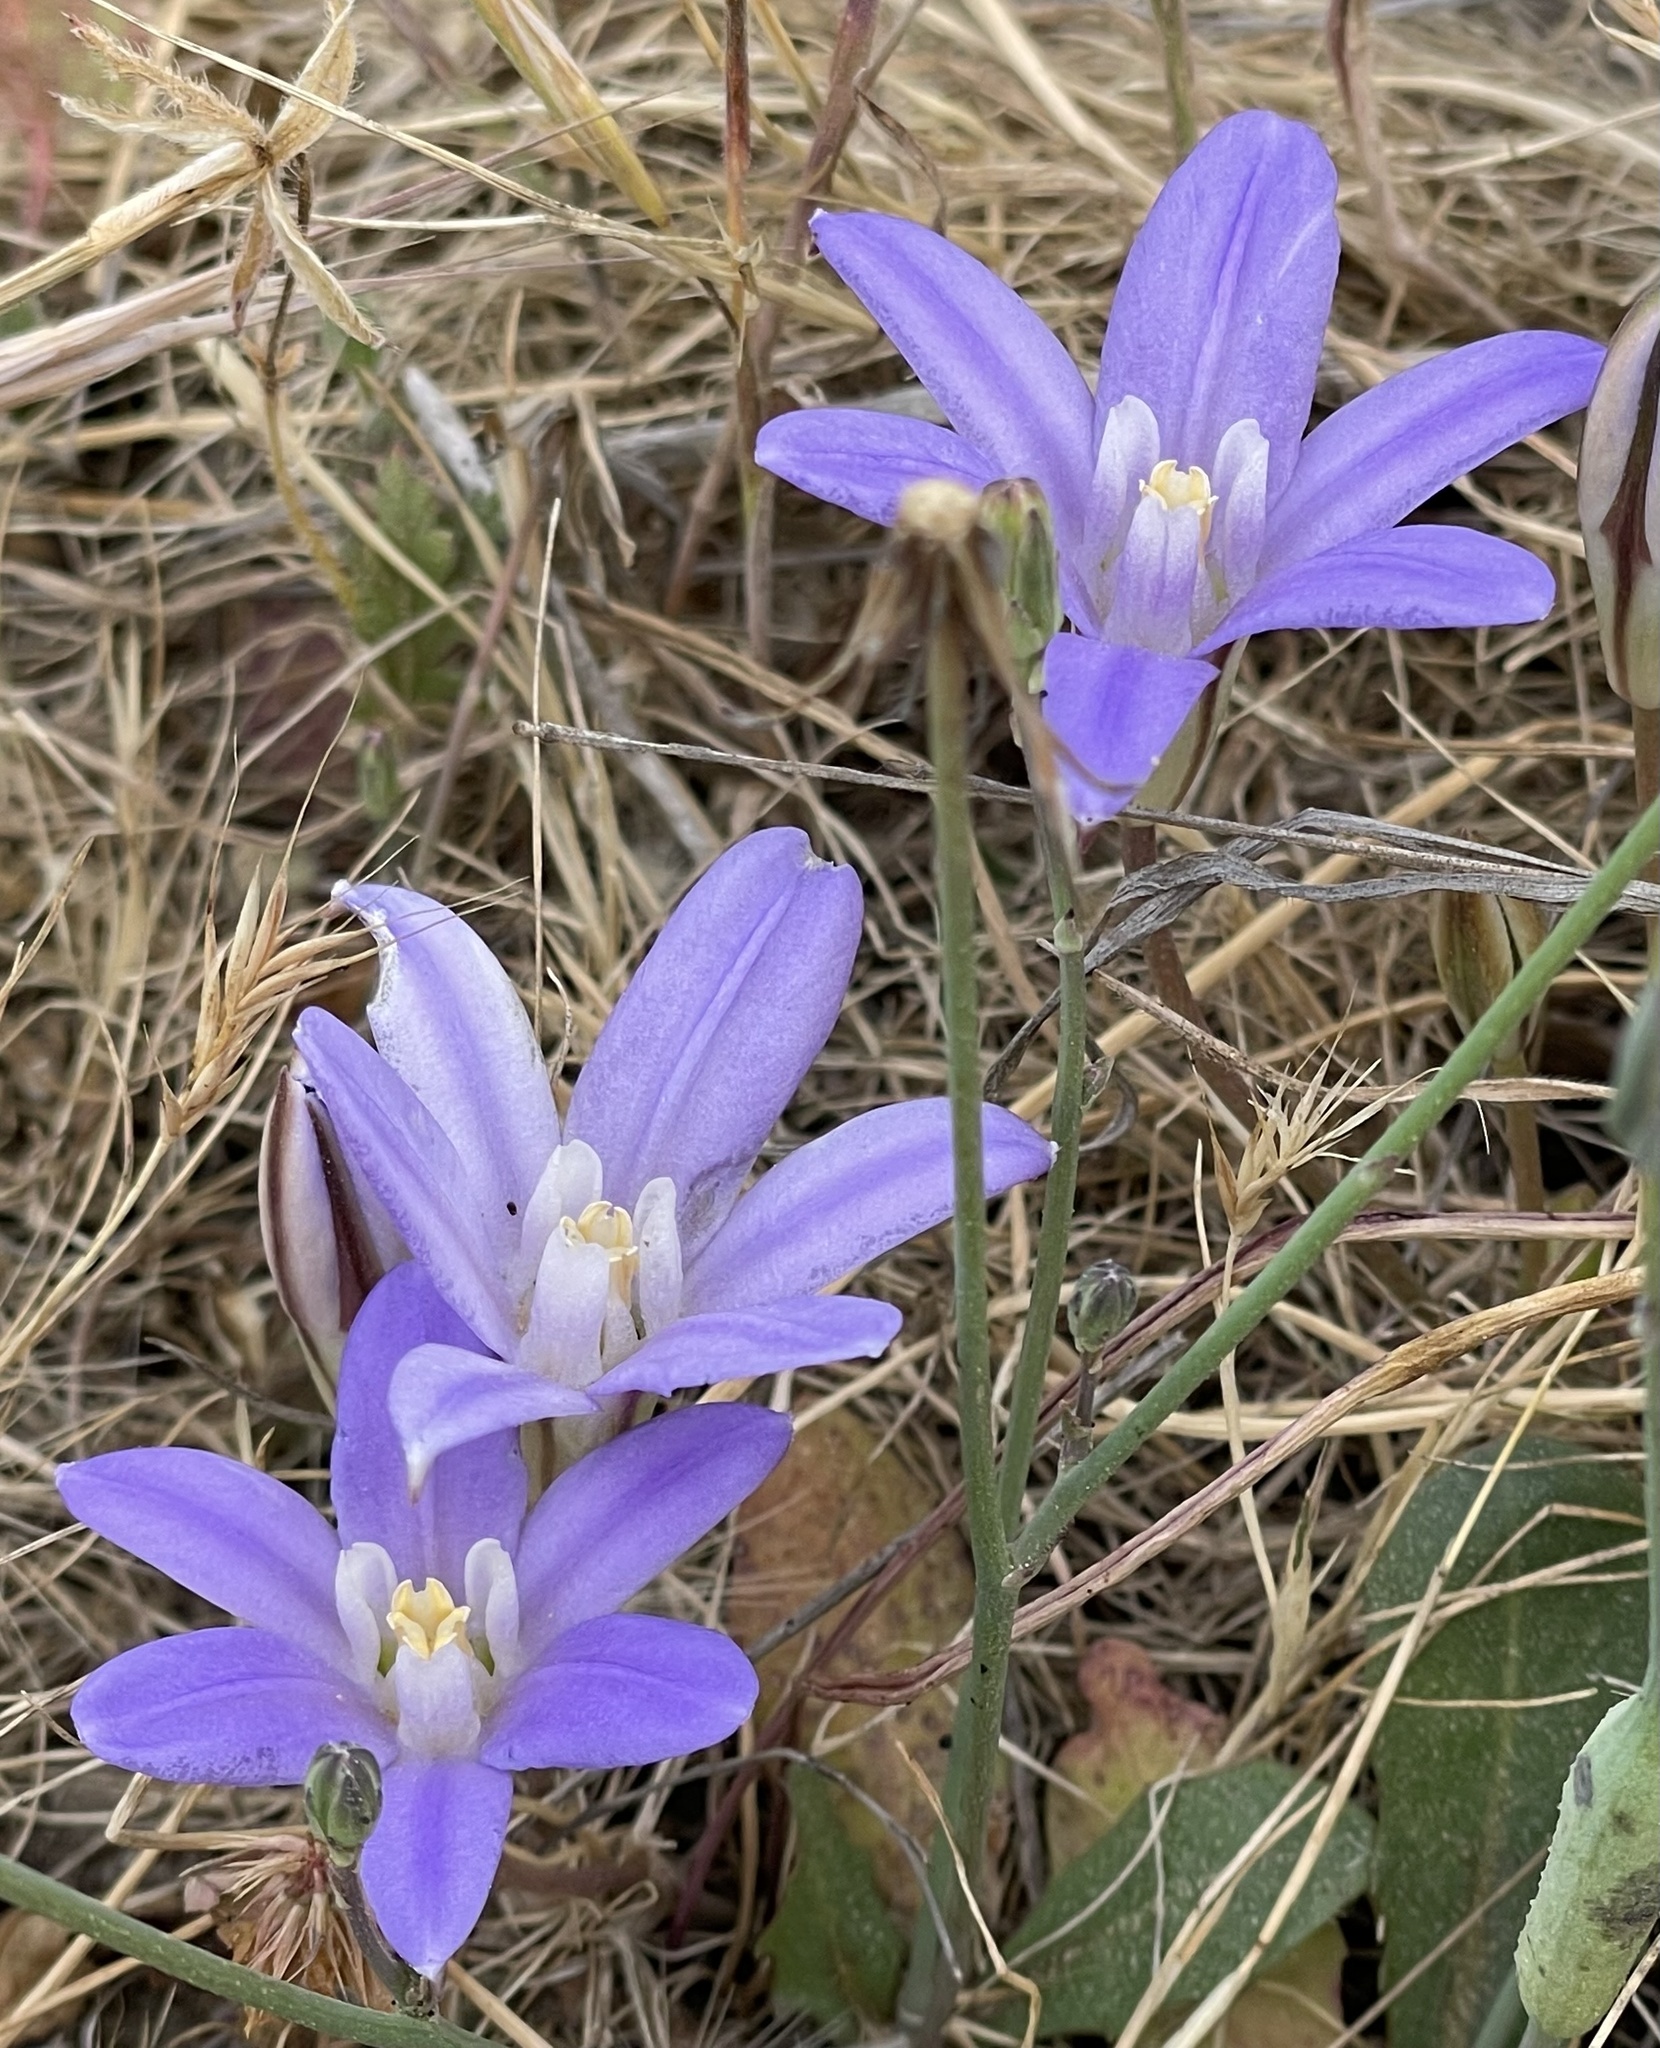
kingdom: Plantae
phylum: Tracheophyta
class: Liliopsida
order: Asparagales
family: Asparagaceae
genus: Brodiaea
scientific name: Brodiaea terrestris
